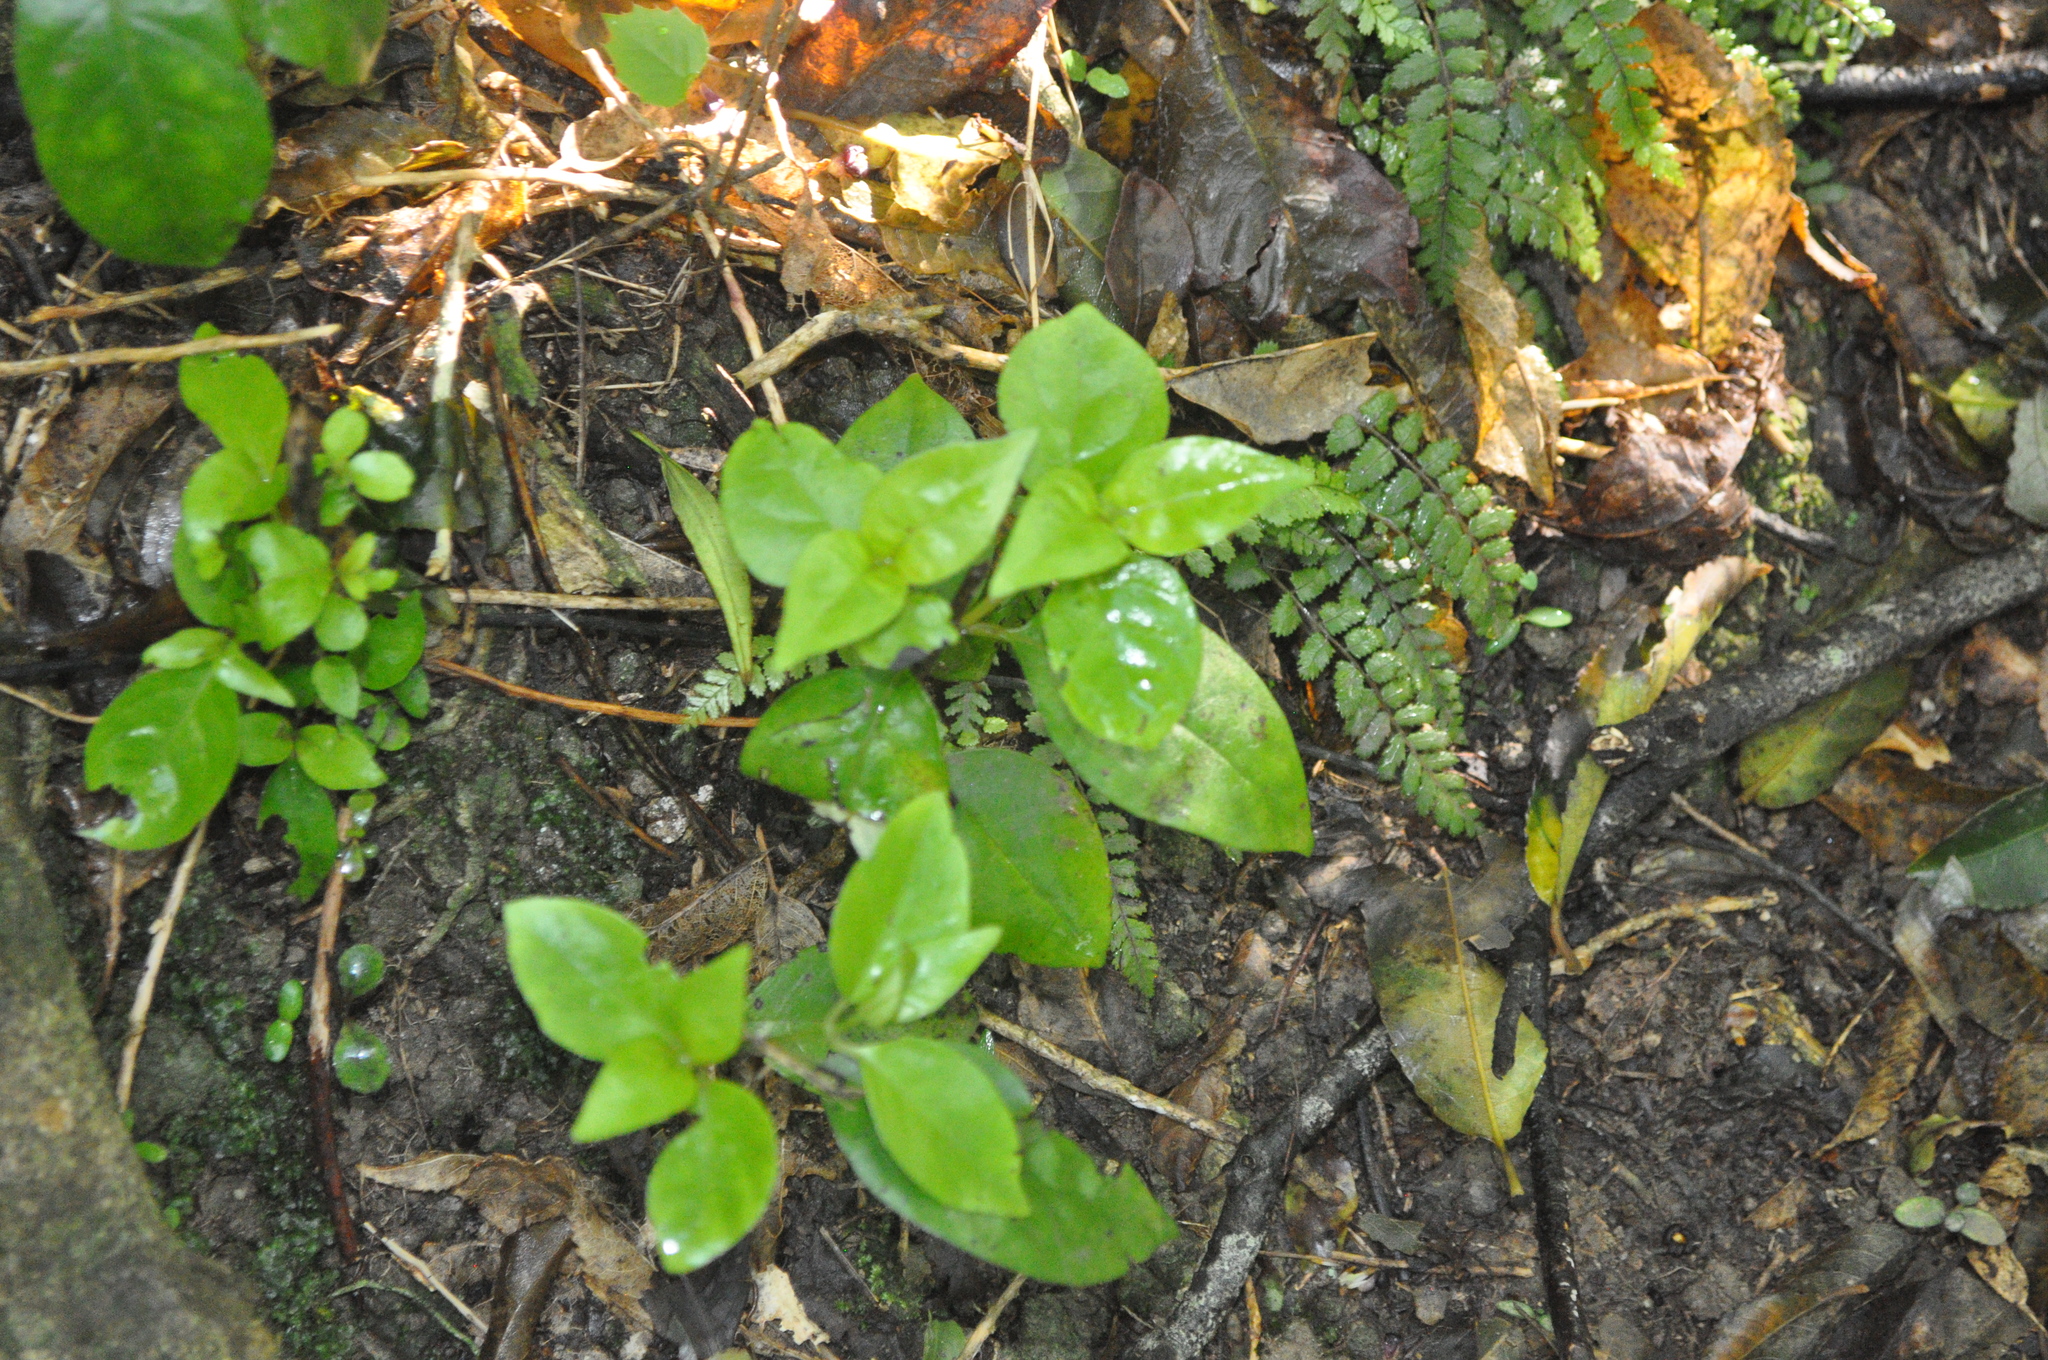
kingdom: Plantae
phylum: Tracheophyta
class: Magnoliopsida
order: Gentianales
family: Loganiaceae
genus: Geniostoma
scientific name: Geniostoma ligustrifolium
